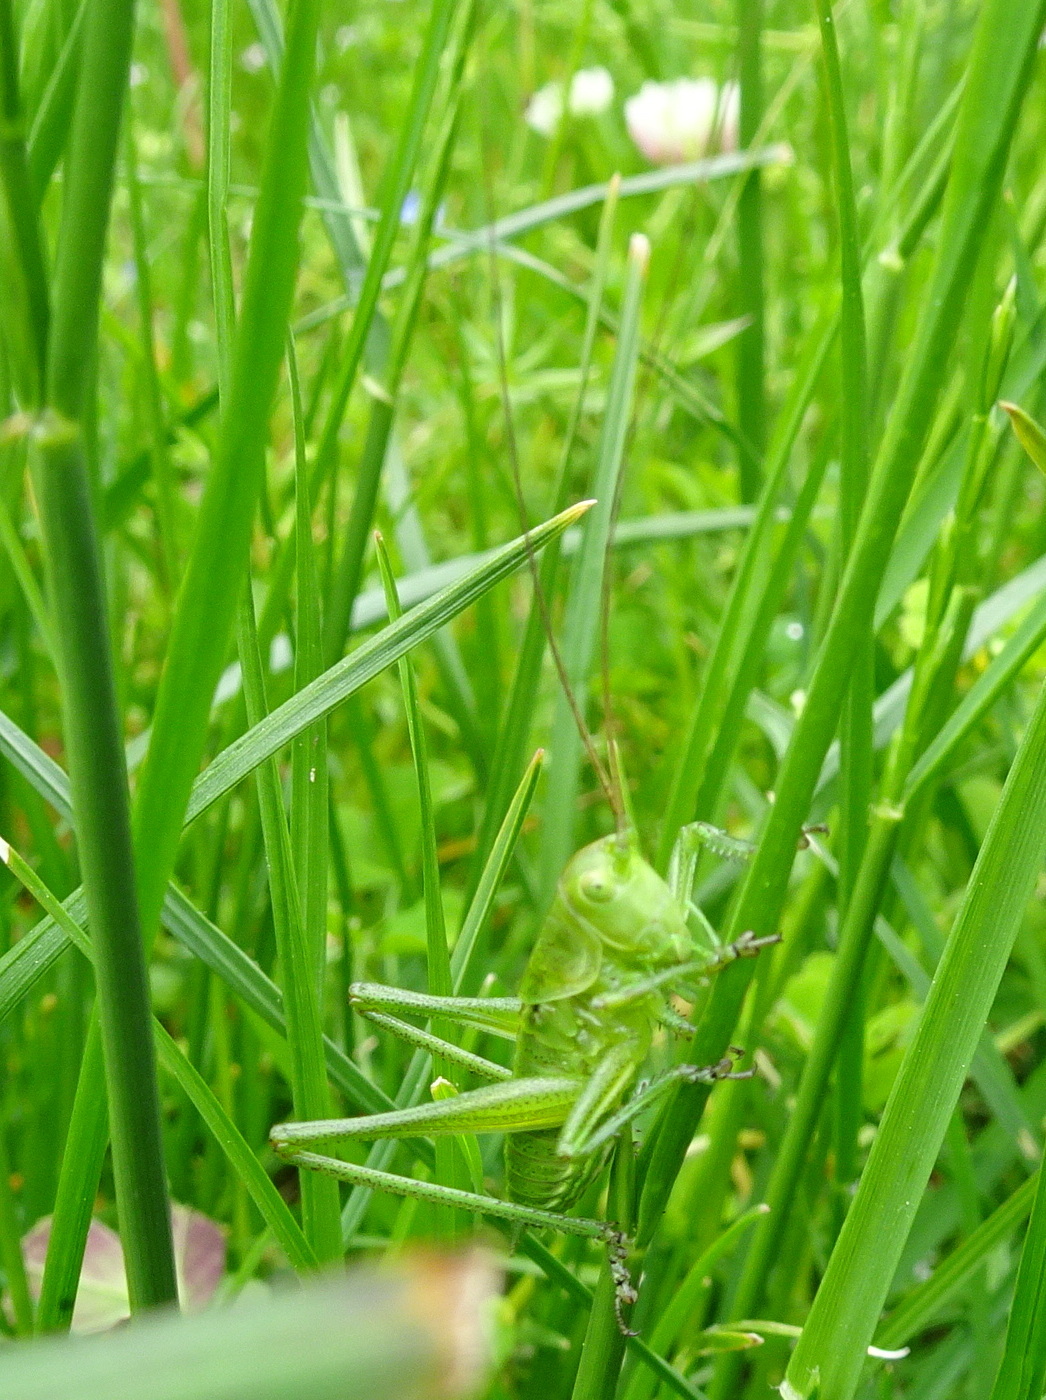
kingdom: Animalia
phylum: Arthropoda
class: Insecta
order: Orthoptera
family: Tettigoniidae
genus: Tettigonia
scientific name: Tettigonia viridissima
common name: Great green bush-cricket
